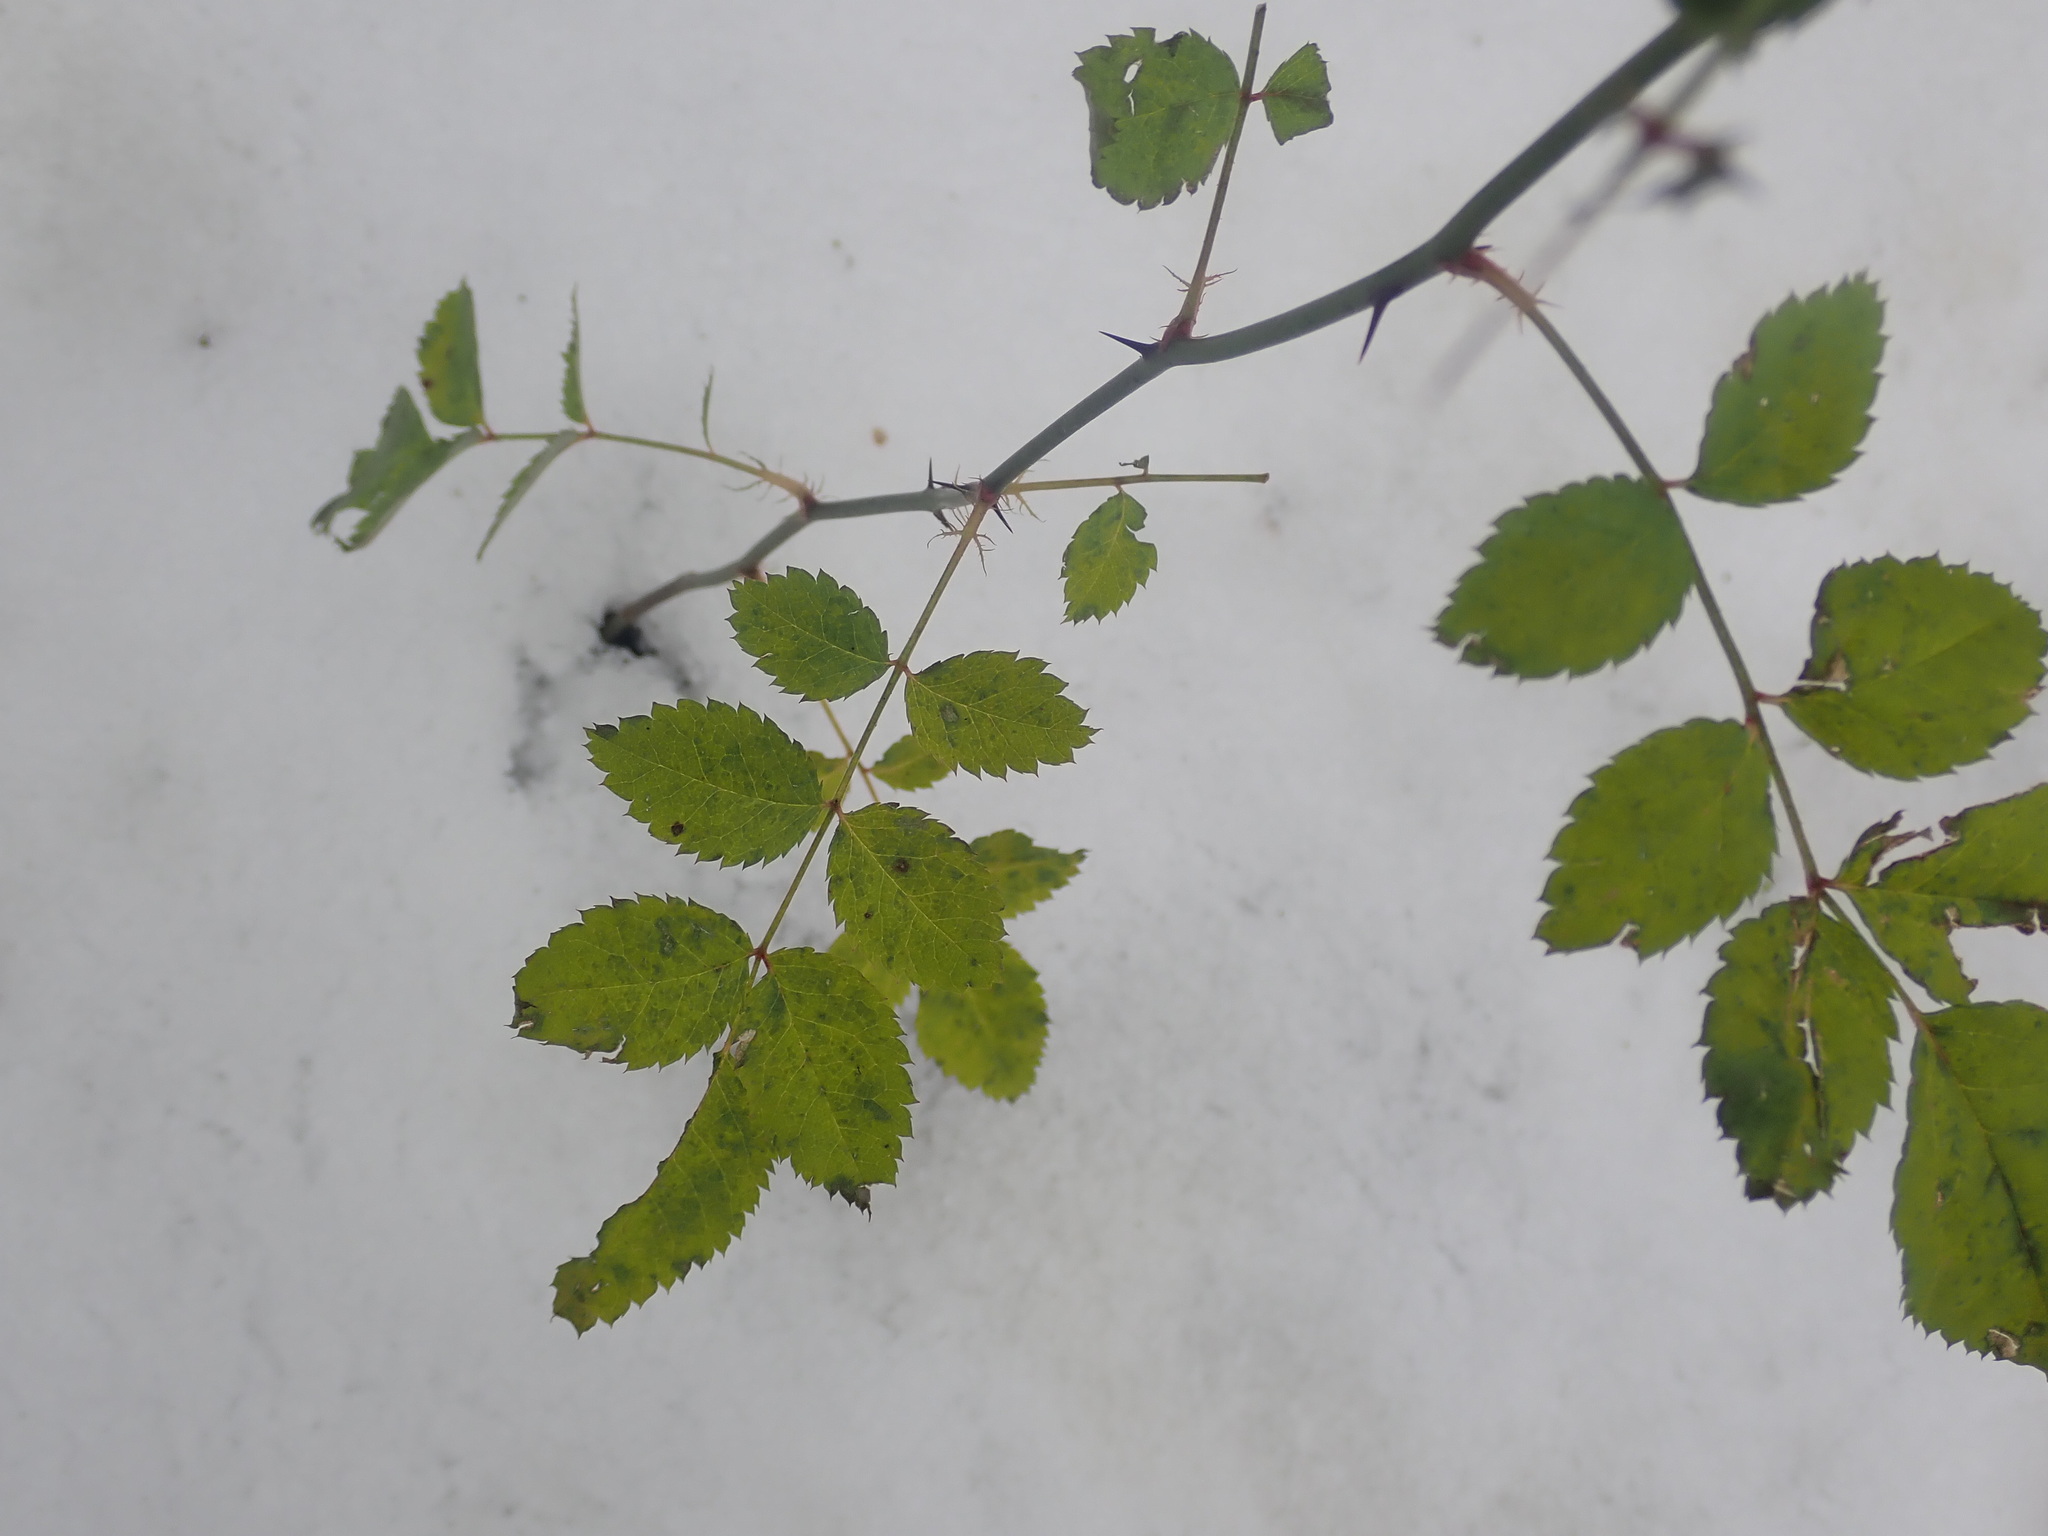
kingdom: Plantae
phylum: Tracheophyta
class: Magnoliopsida
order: Rosales
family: Rosaceae
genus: Rosa
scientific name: Rosa multiflora
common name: Multiflora rose
